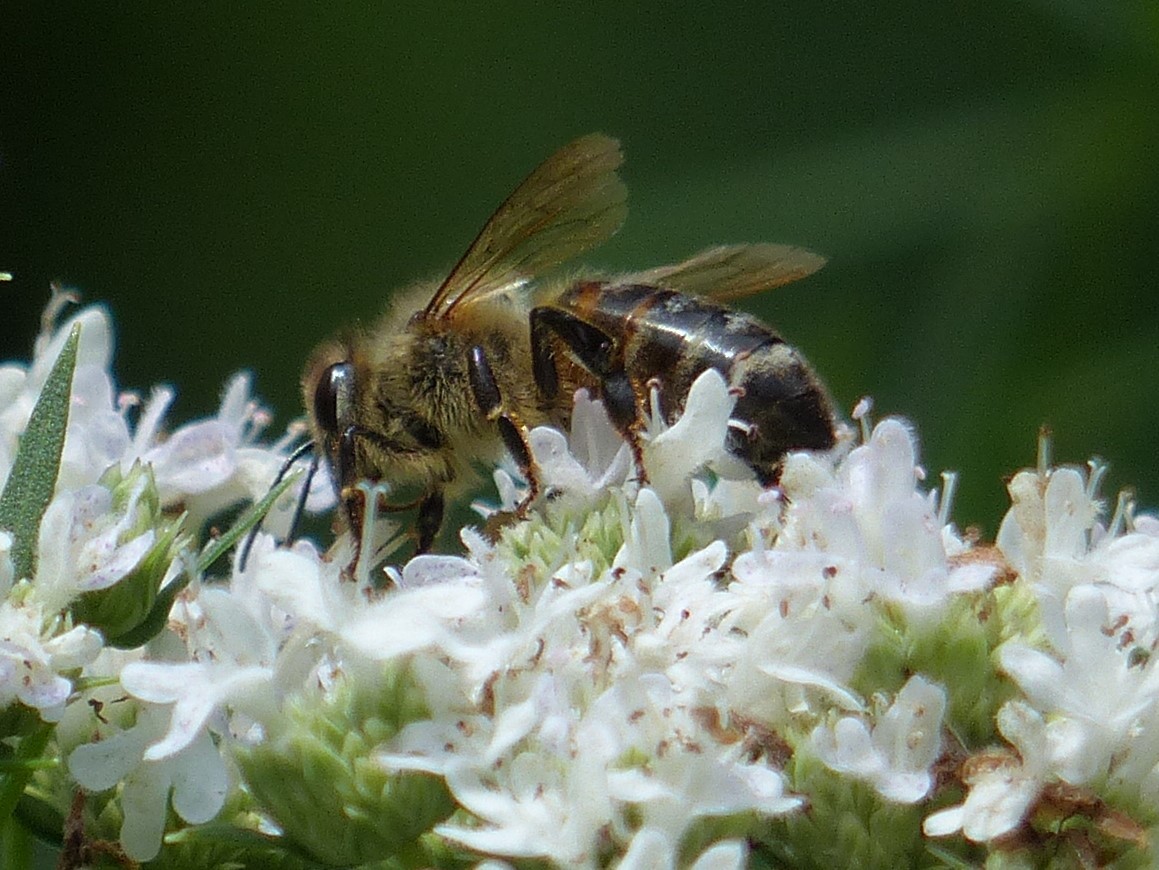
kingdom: Animalia
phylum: Arthropoda
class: Insecta
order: Hymenoptera
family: Apidae
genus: Apis
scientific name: Apis mellifera
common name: Honey bee
